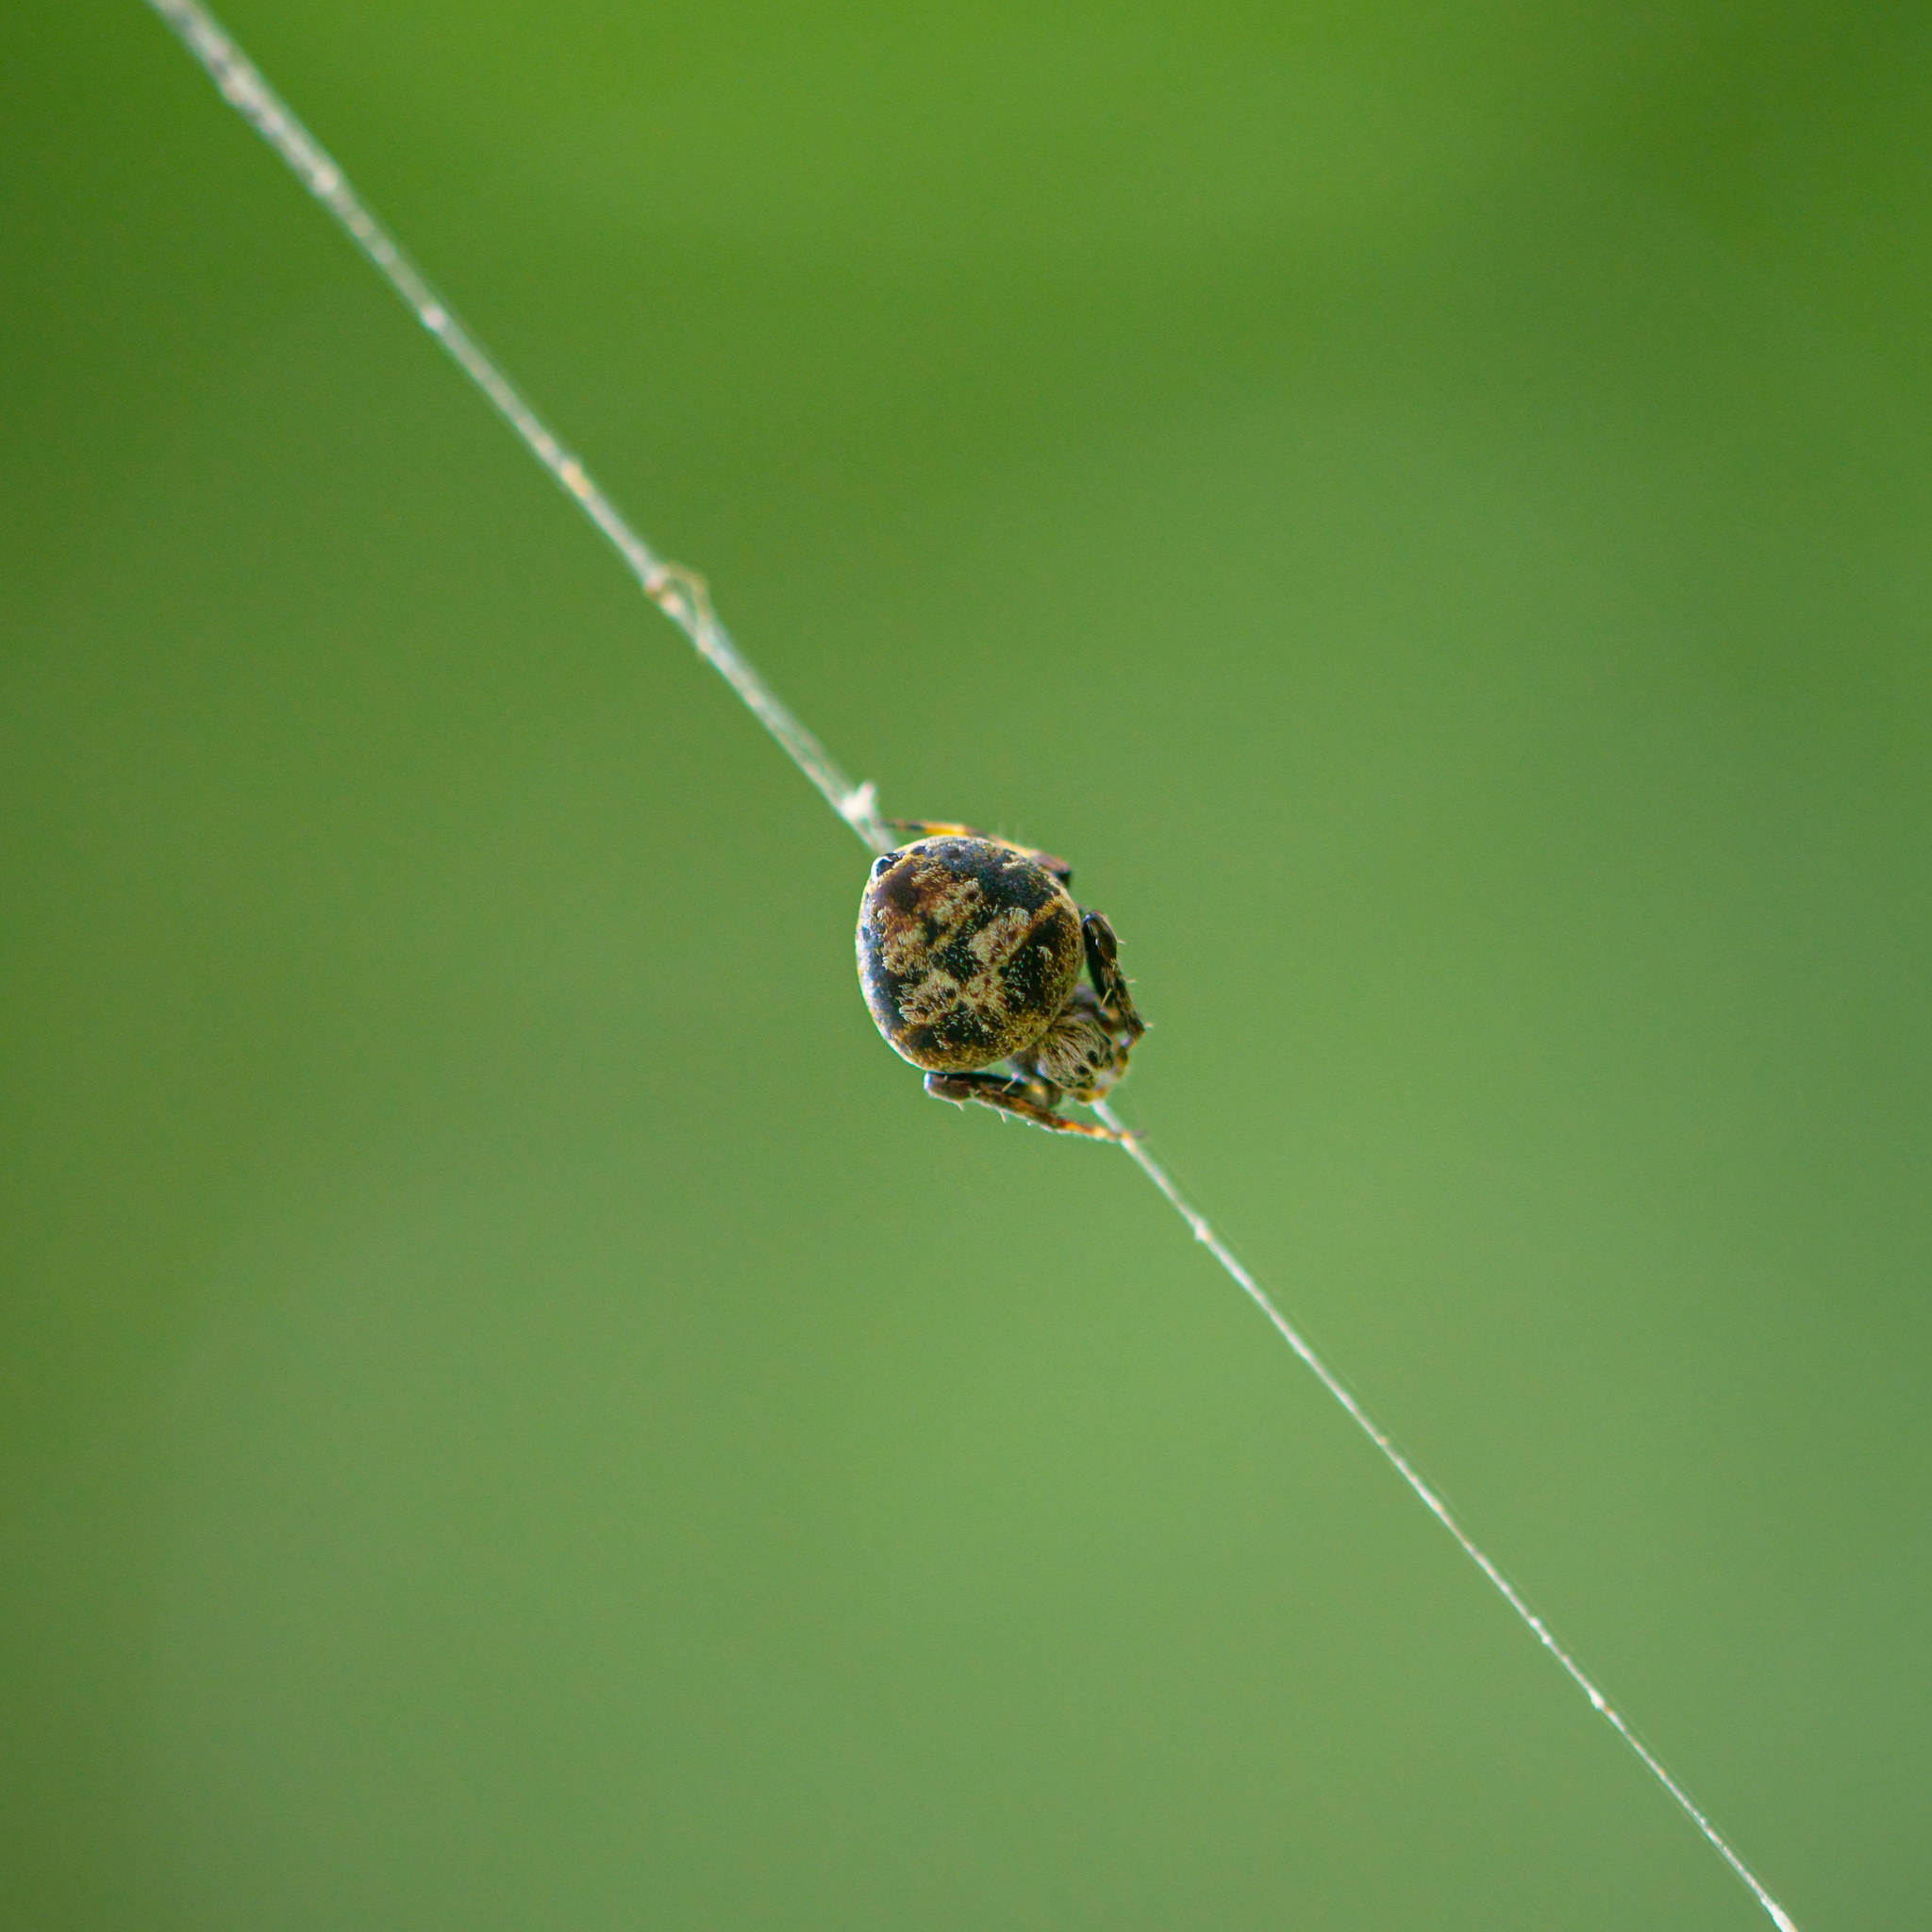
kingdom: Animalia
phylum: Arthropoda
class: Arachnida
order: Araneae
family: Araneidae
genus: Eriovixia
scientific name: Eriovixia excelsa
